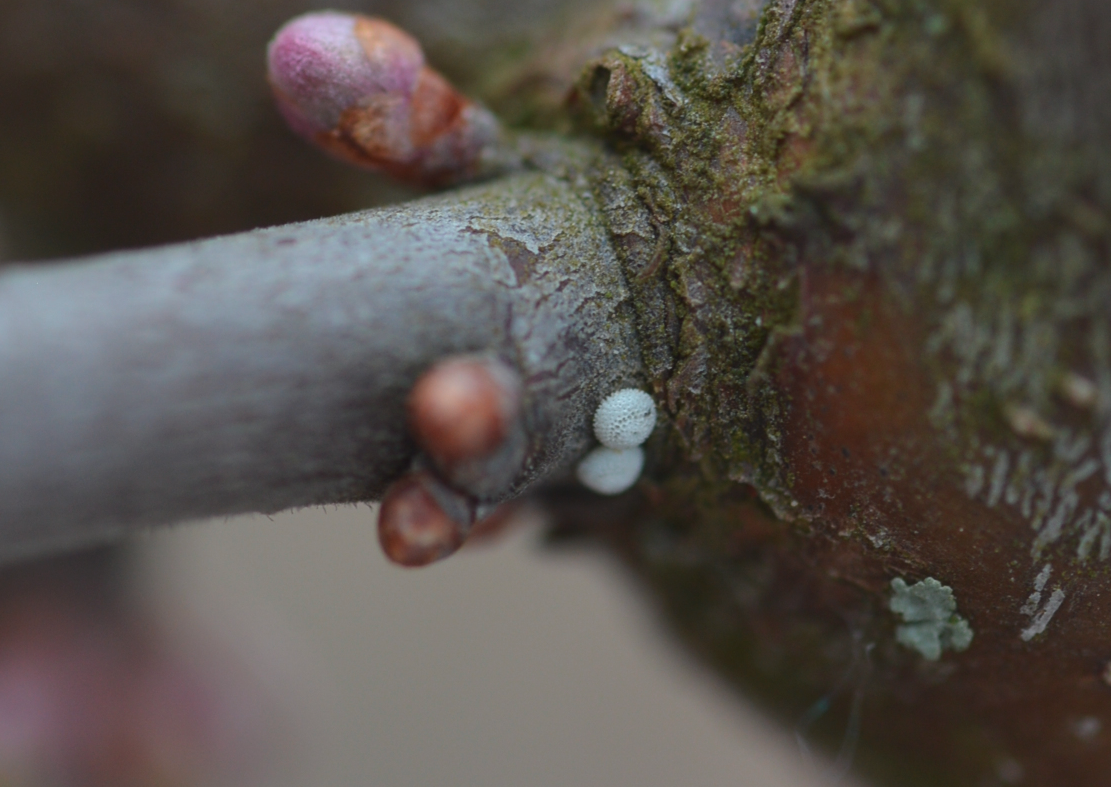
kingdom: Animalia
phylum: Arthropoda
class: Insecta
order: Lepidoptera
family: Lycaenidae
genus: Thecla
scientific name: Thecla betulae
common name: Brown hairstreak
